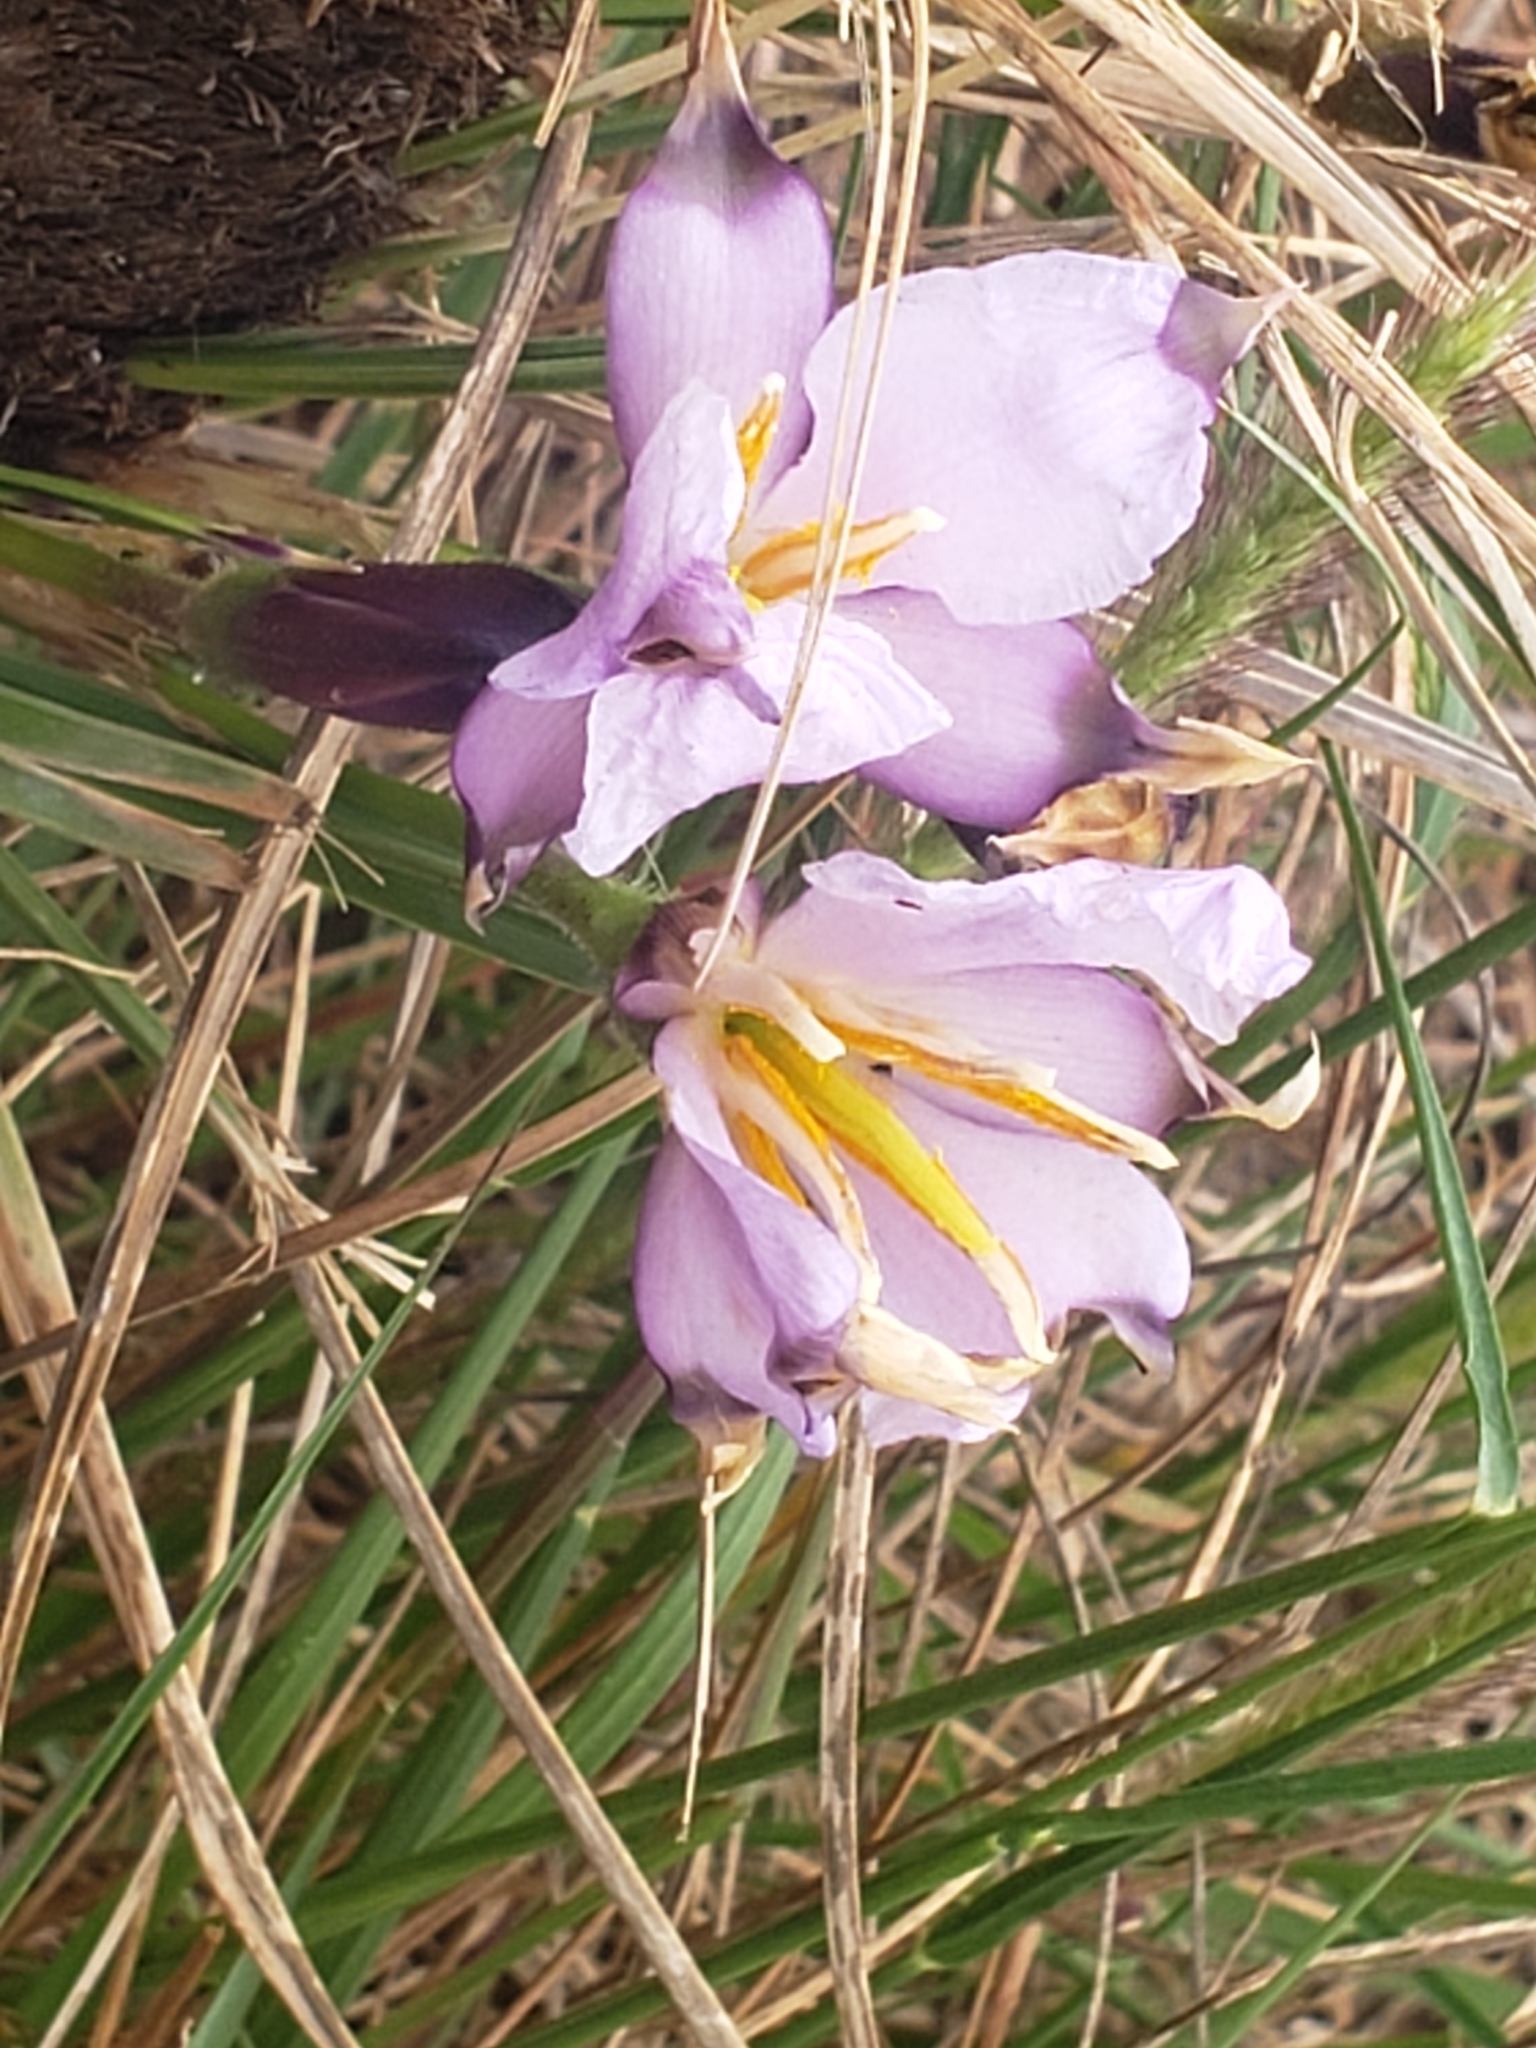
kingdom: Plantae
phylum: Tracheophyta
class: Liliopsida
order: Pandanales
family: Velloziaceae
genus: Xerophyta
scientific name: Xerophyta retinervis
